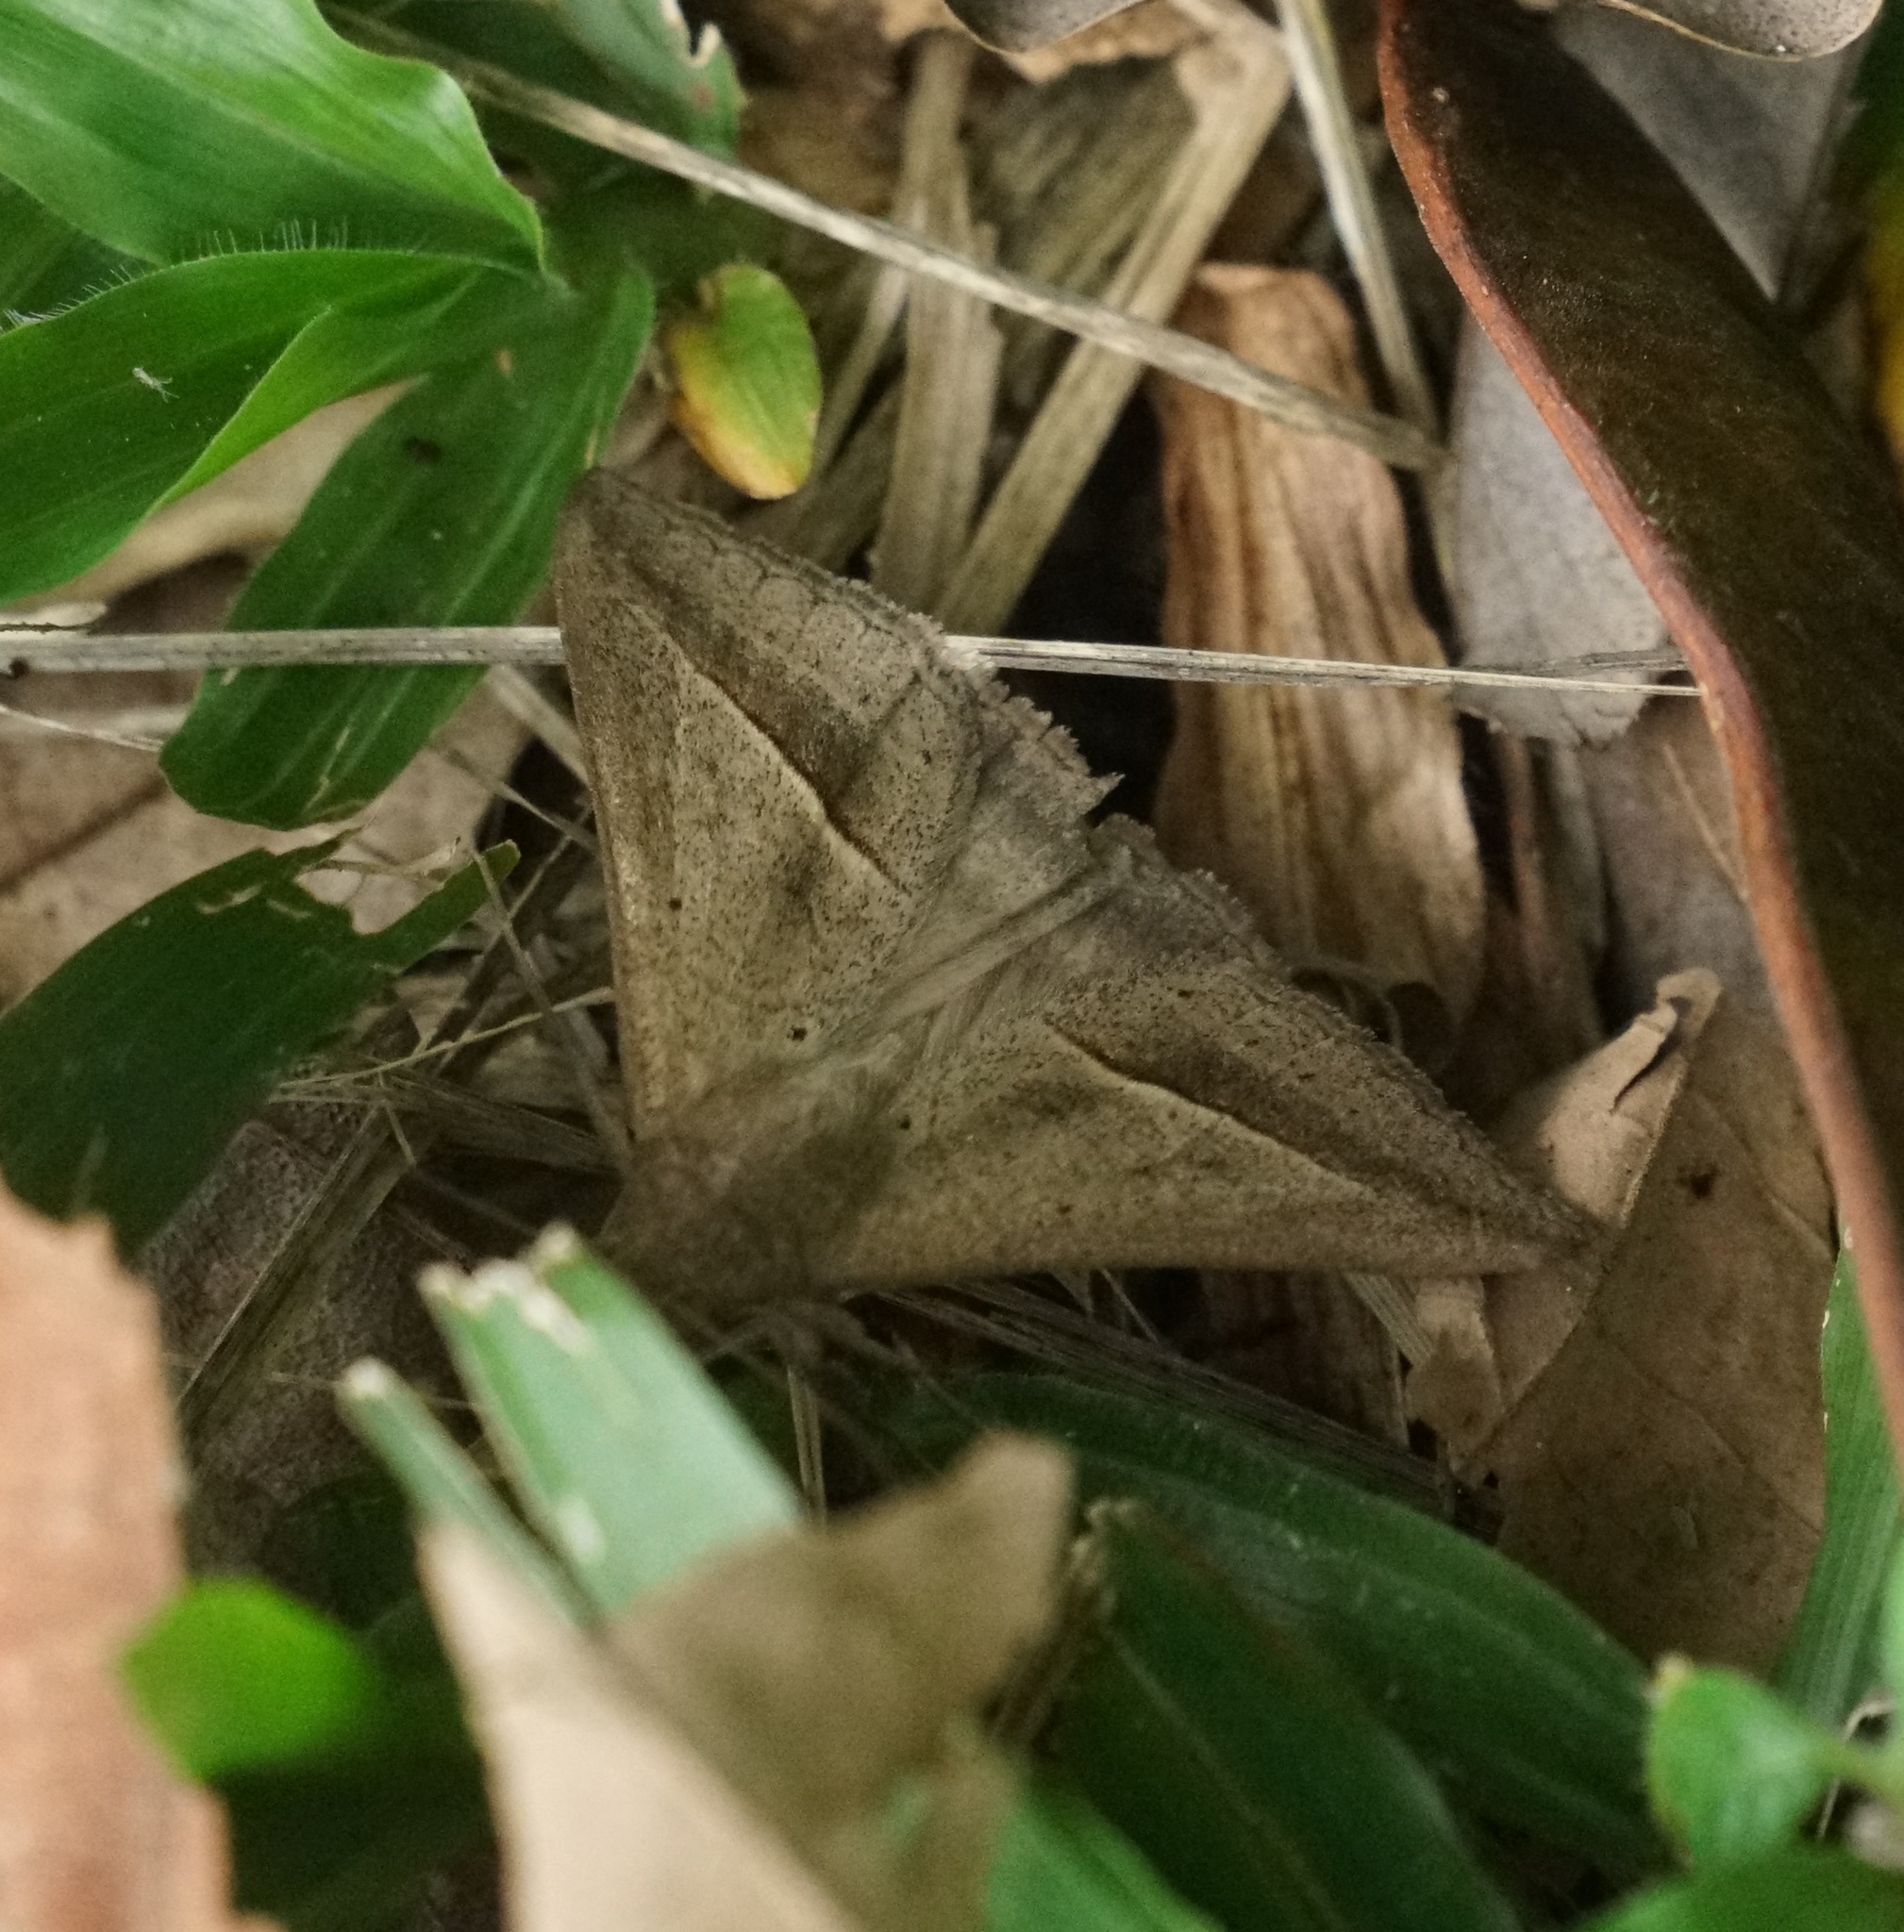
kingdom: Animalia
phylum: Arthropoda
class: Insecta
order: Lepidoptera
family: Erebidae
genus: Mocis
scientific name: Mocis frugalis
